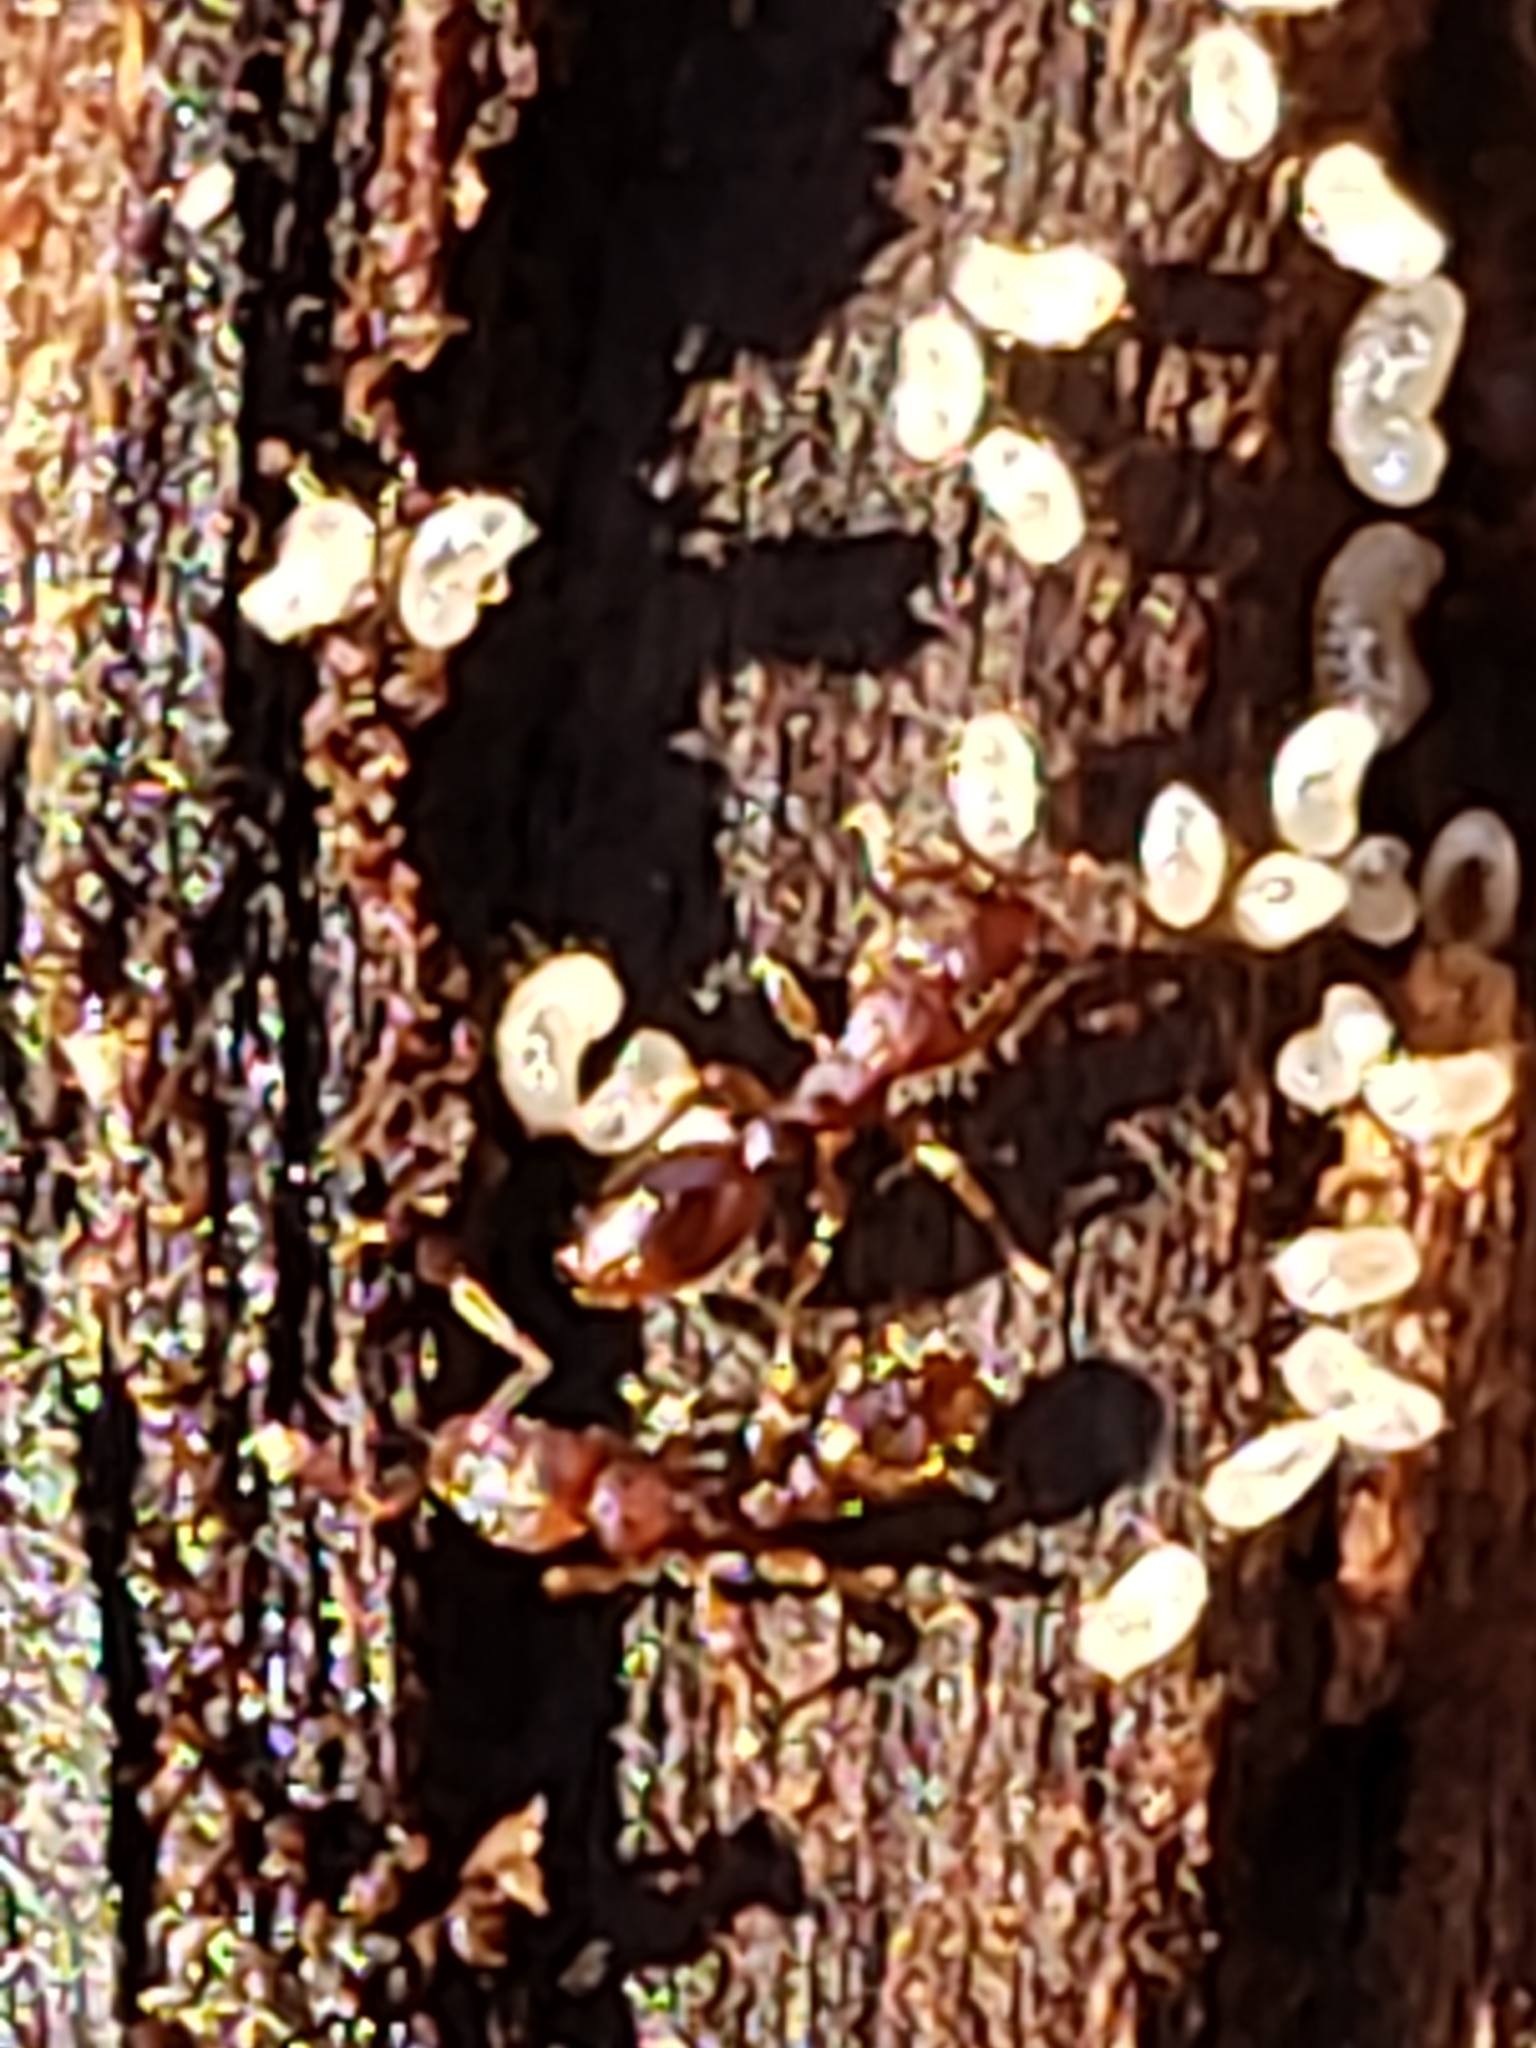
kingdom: Animalia
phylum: Arthropoda
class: Insecta
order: Hymenoptera
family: Formicidae
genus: Vollenhovia
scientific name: Vollenhovia emeryi
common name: Ant
